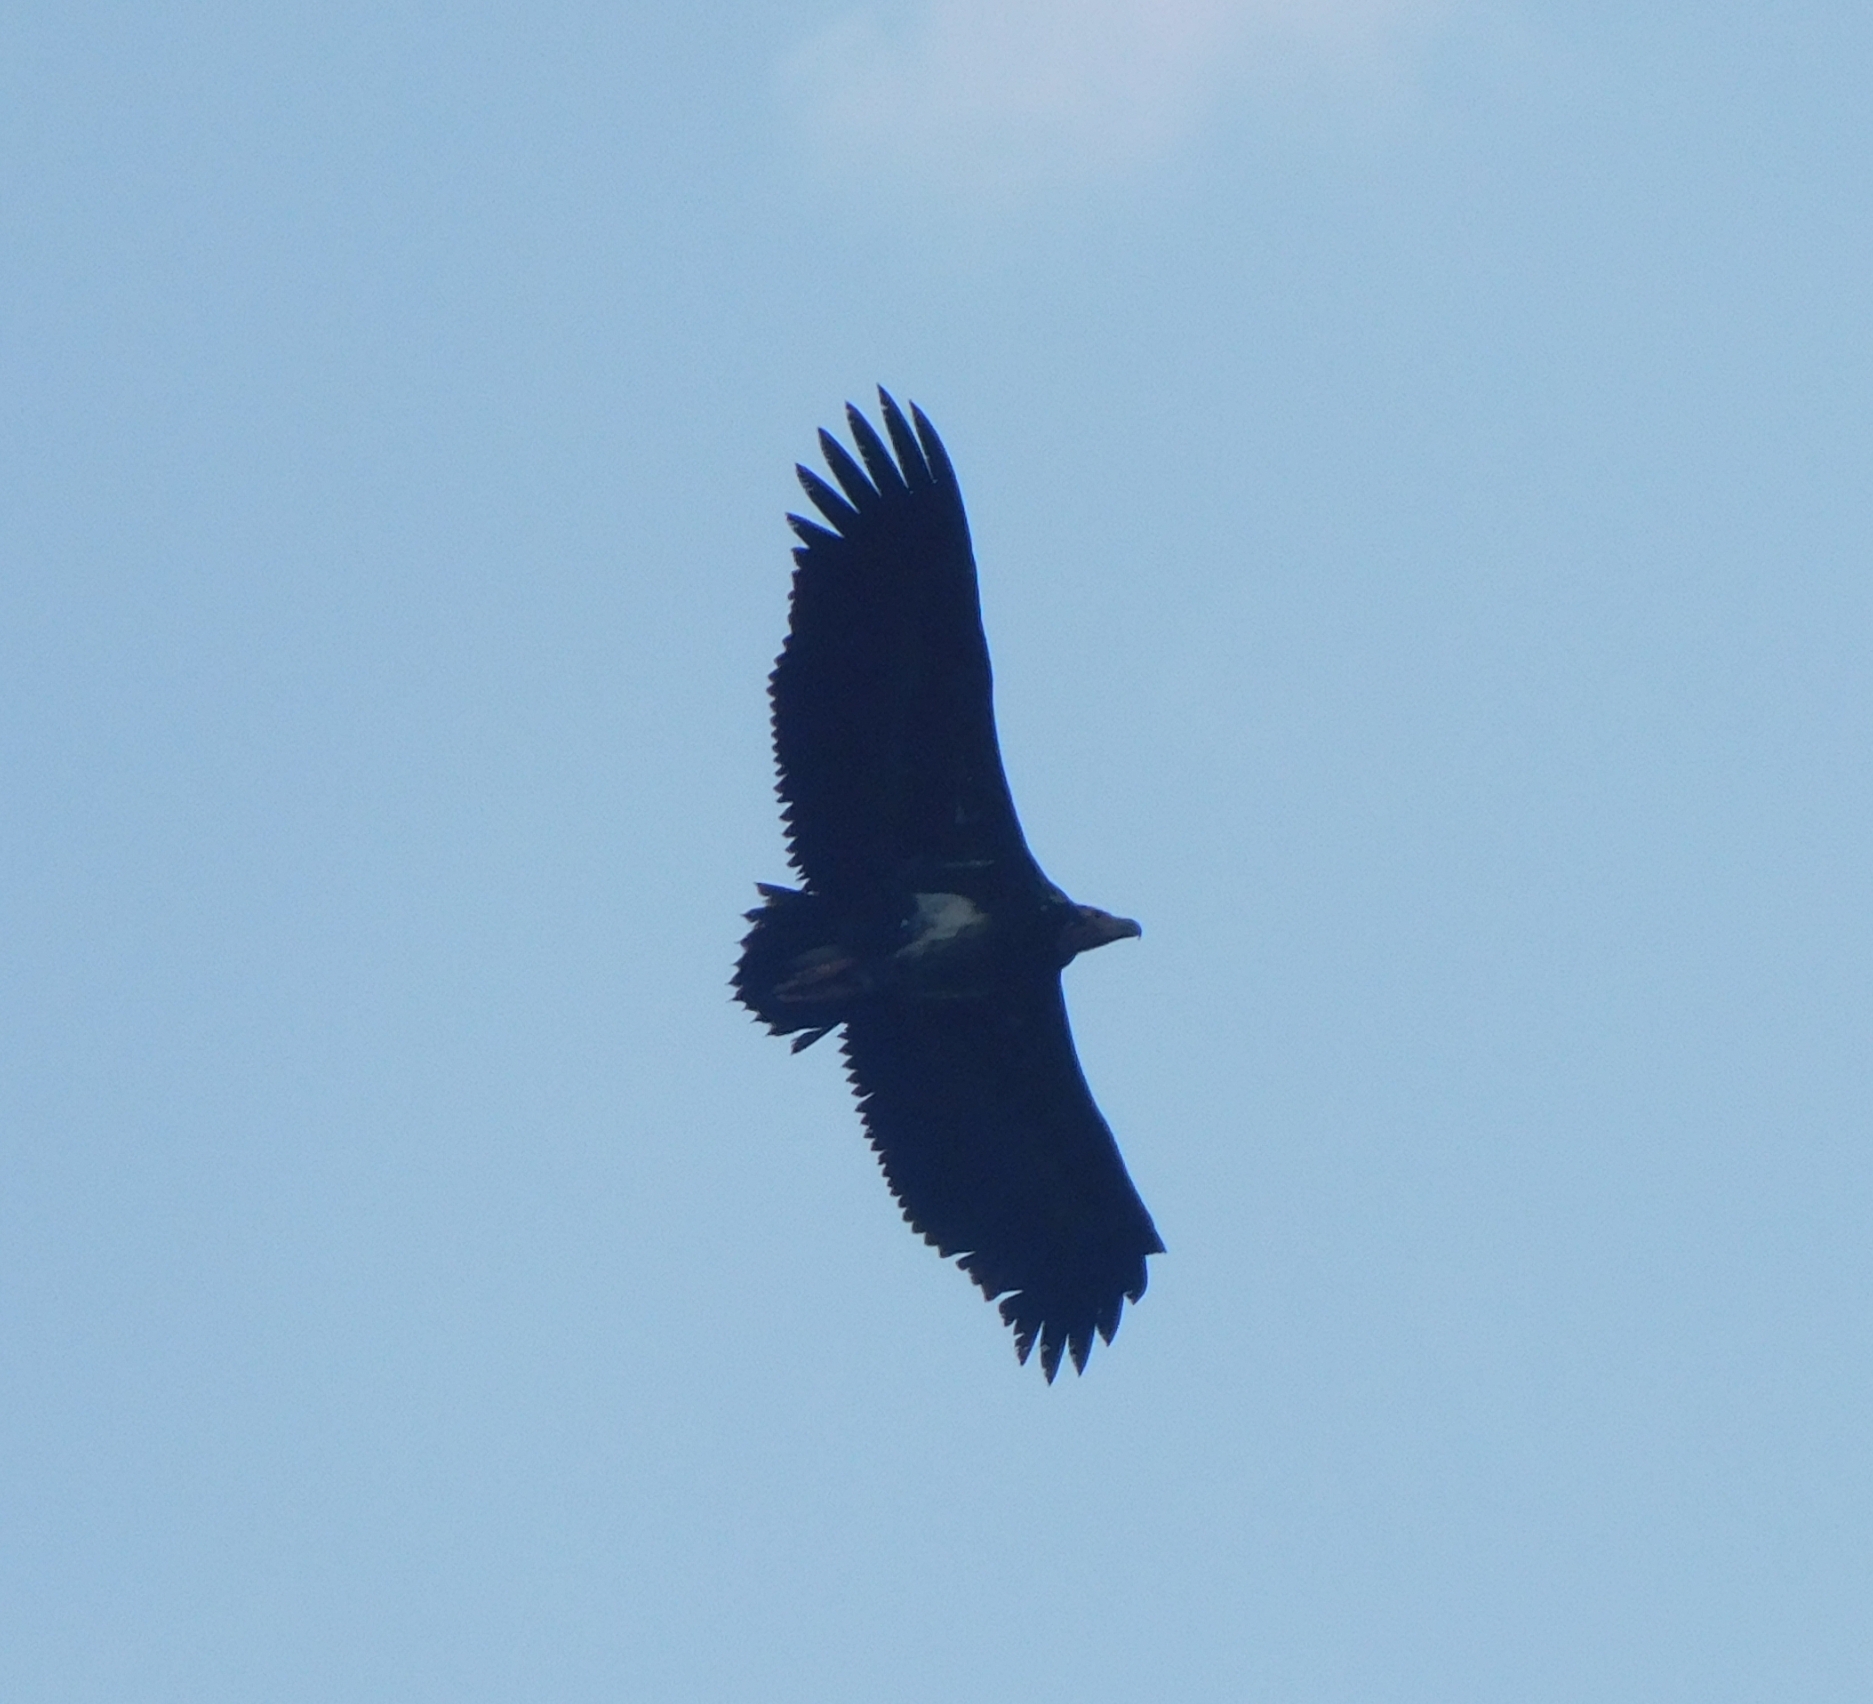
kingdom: Animalia
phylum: Chordata
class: Aves
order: Accipitriformes
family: Accipitridae
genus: Sarcogyps
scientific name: Sarcogyps calvus
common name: Red-headed vulture
